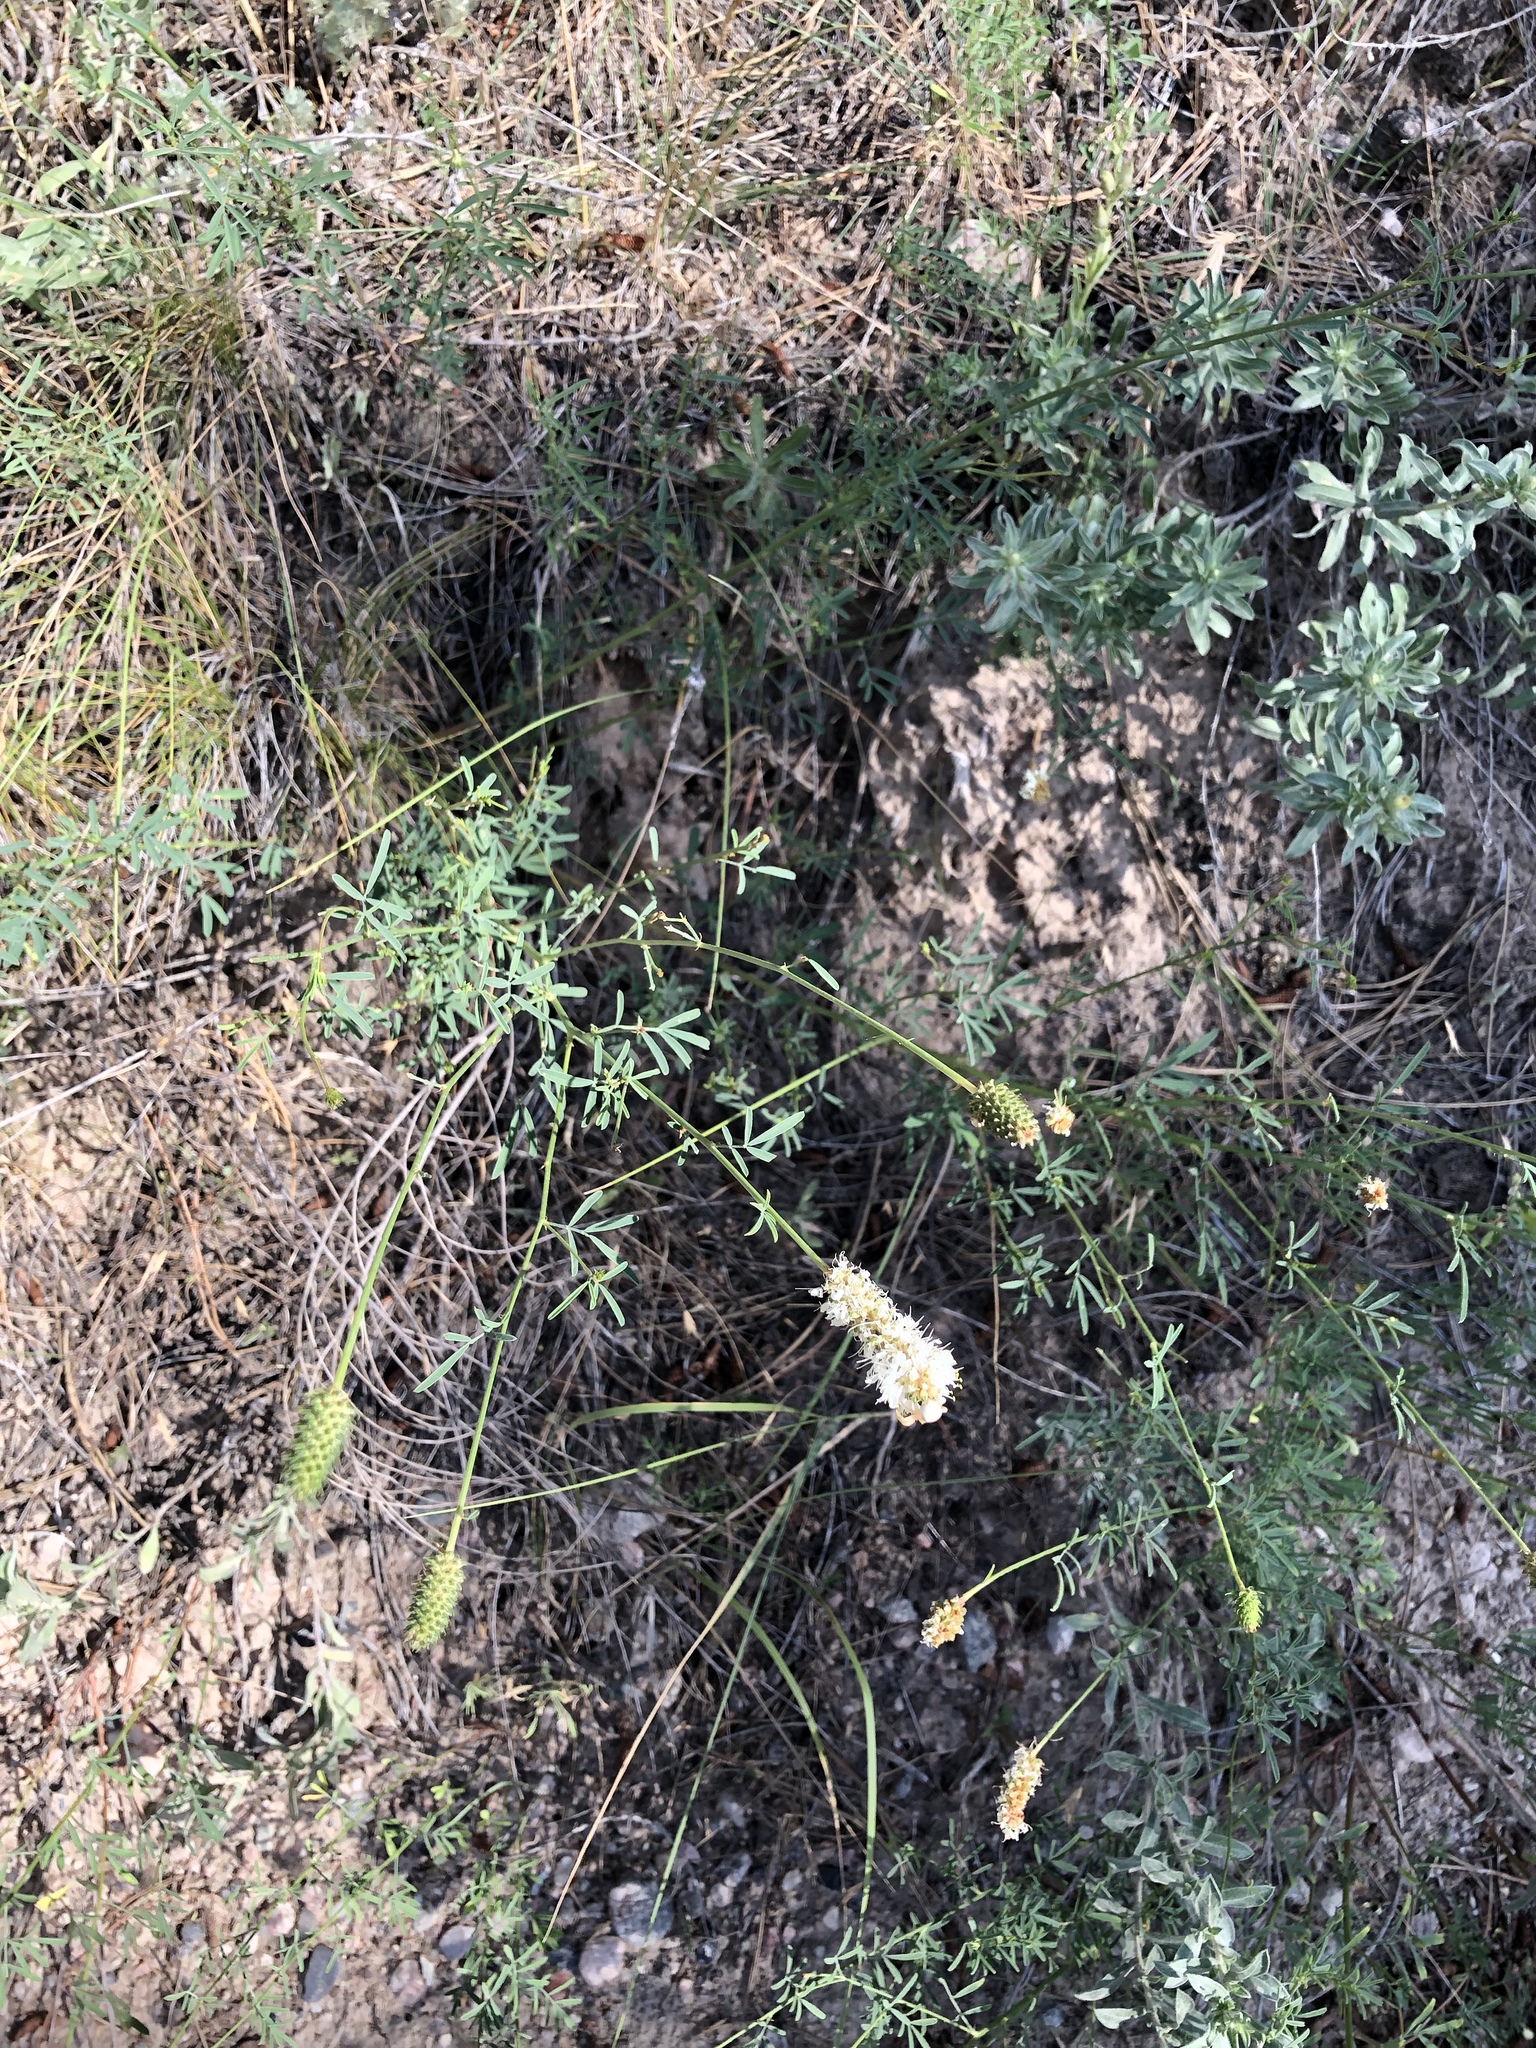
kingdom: Plantae
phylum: Tracheophyta
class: Magnoliopsida
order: Fabales
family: Fabaceae
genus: Dalea
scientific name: Dalea candida
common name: White prairie-clover
